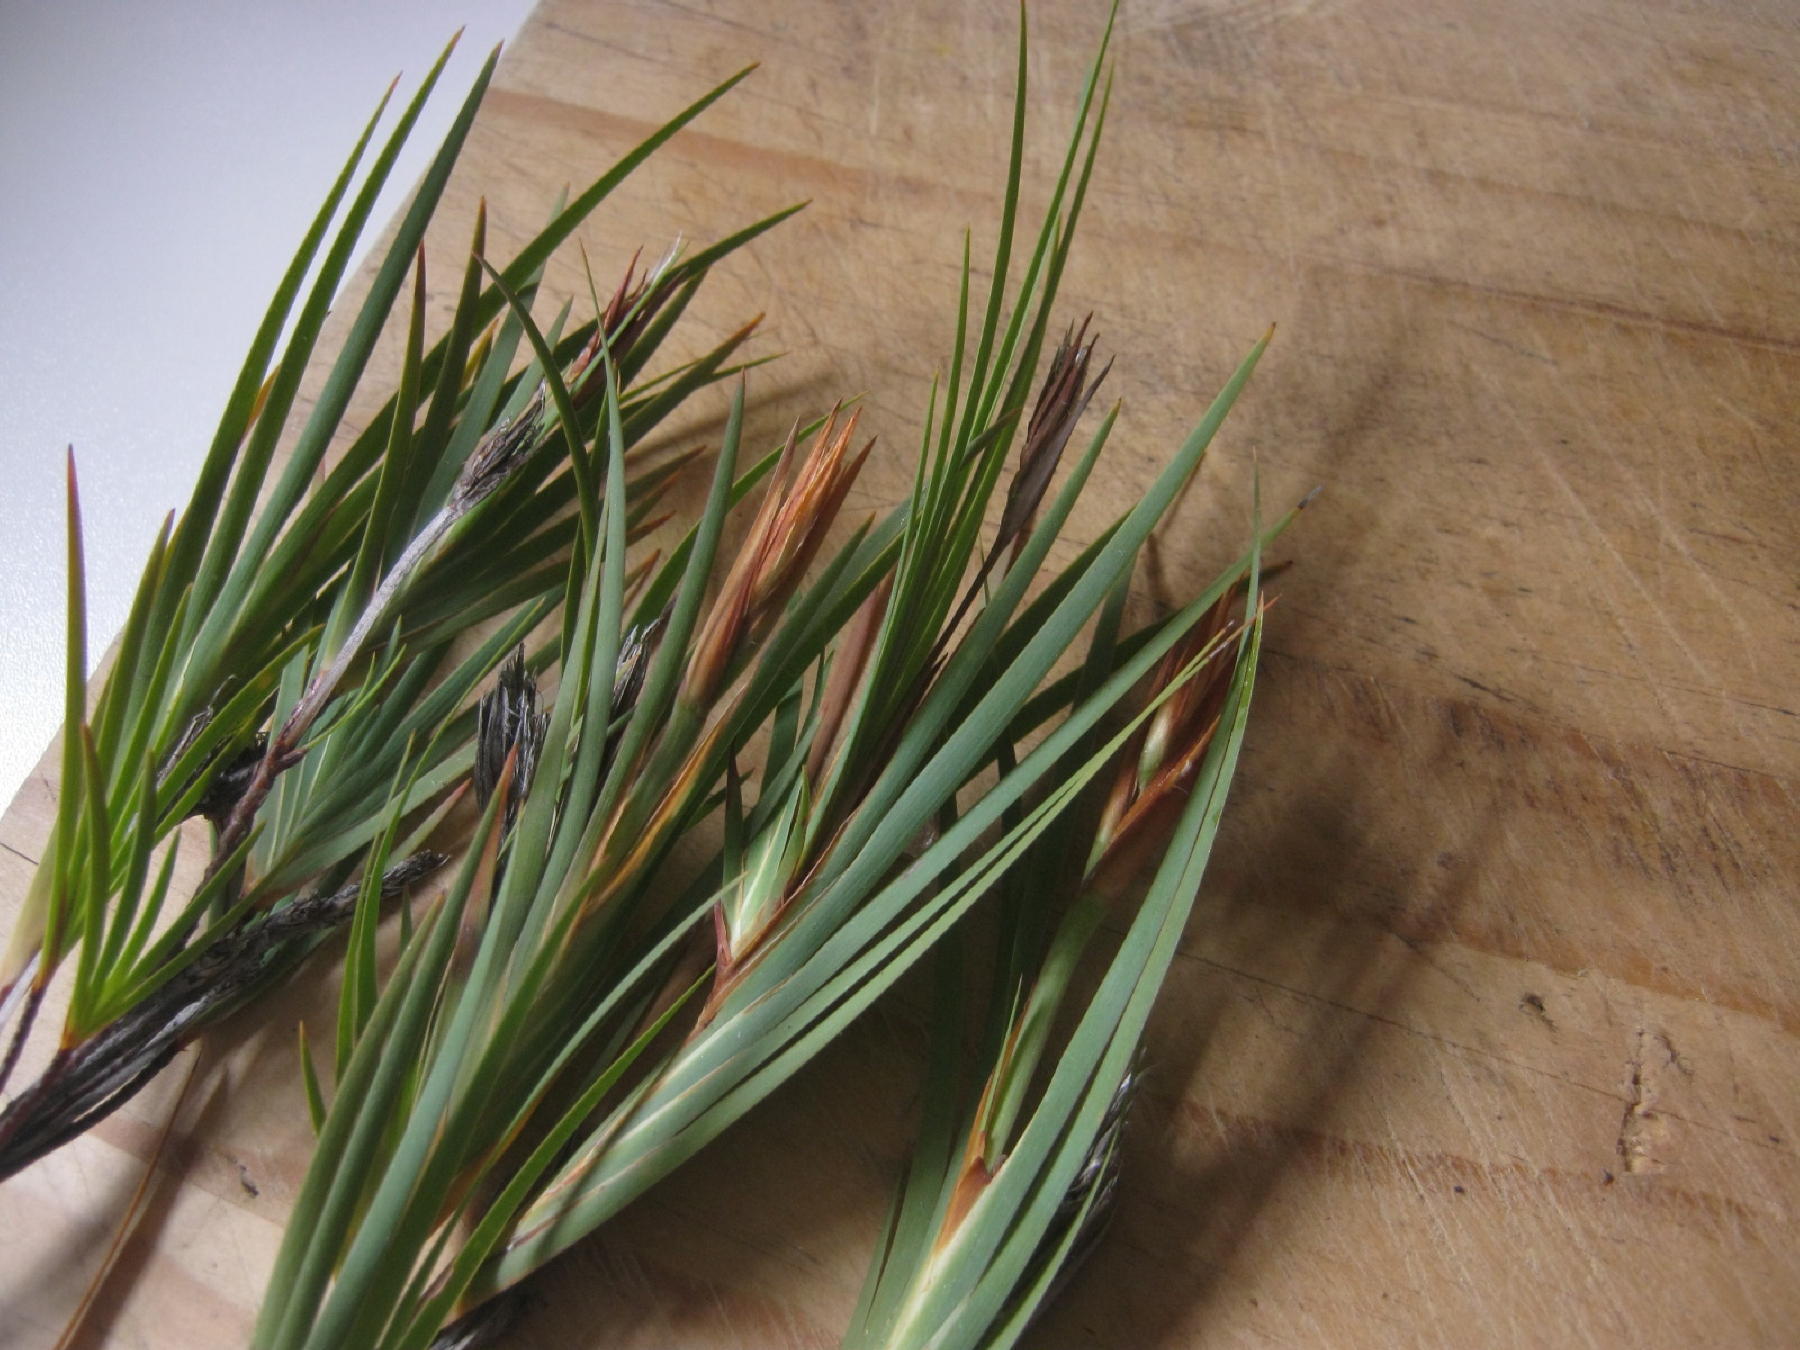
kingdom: Plantae
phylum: Tracheophyta
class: Liliopsida
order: Asparagales
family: Iridaceae
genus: Nivenia
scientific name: Nivenia argentea
